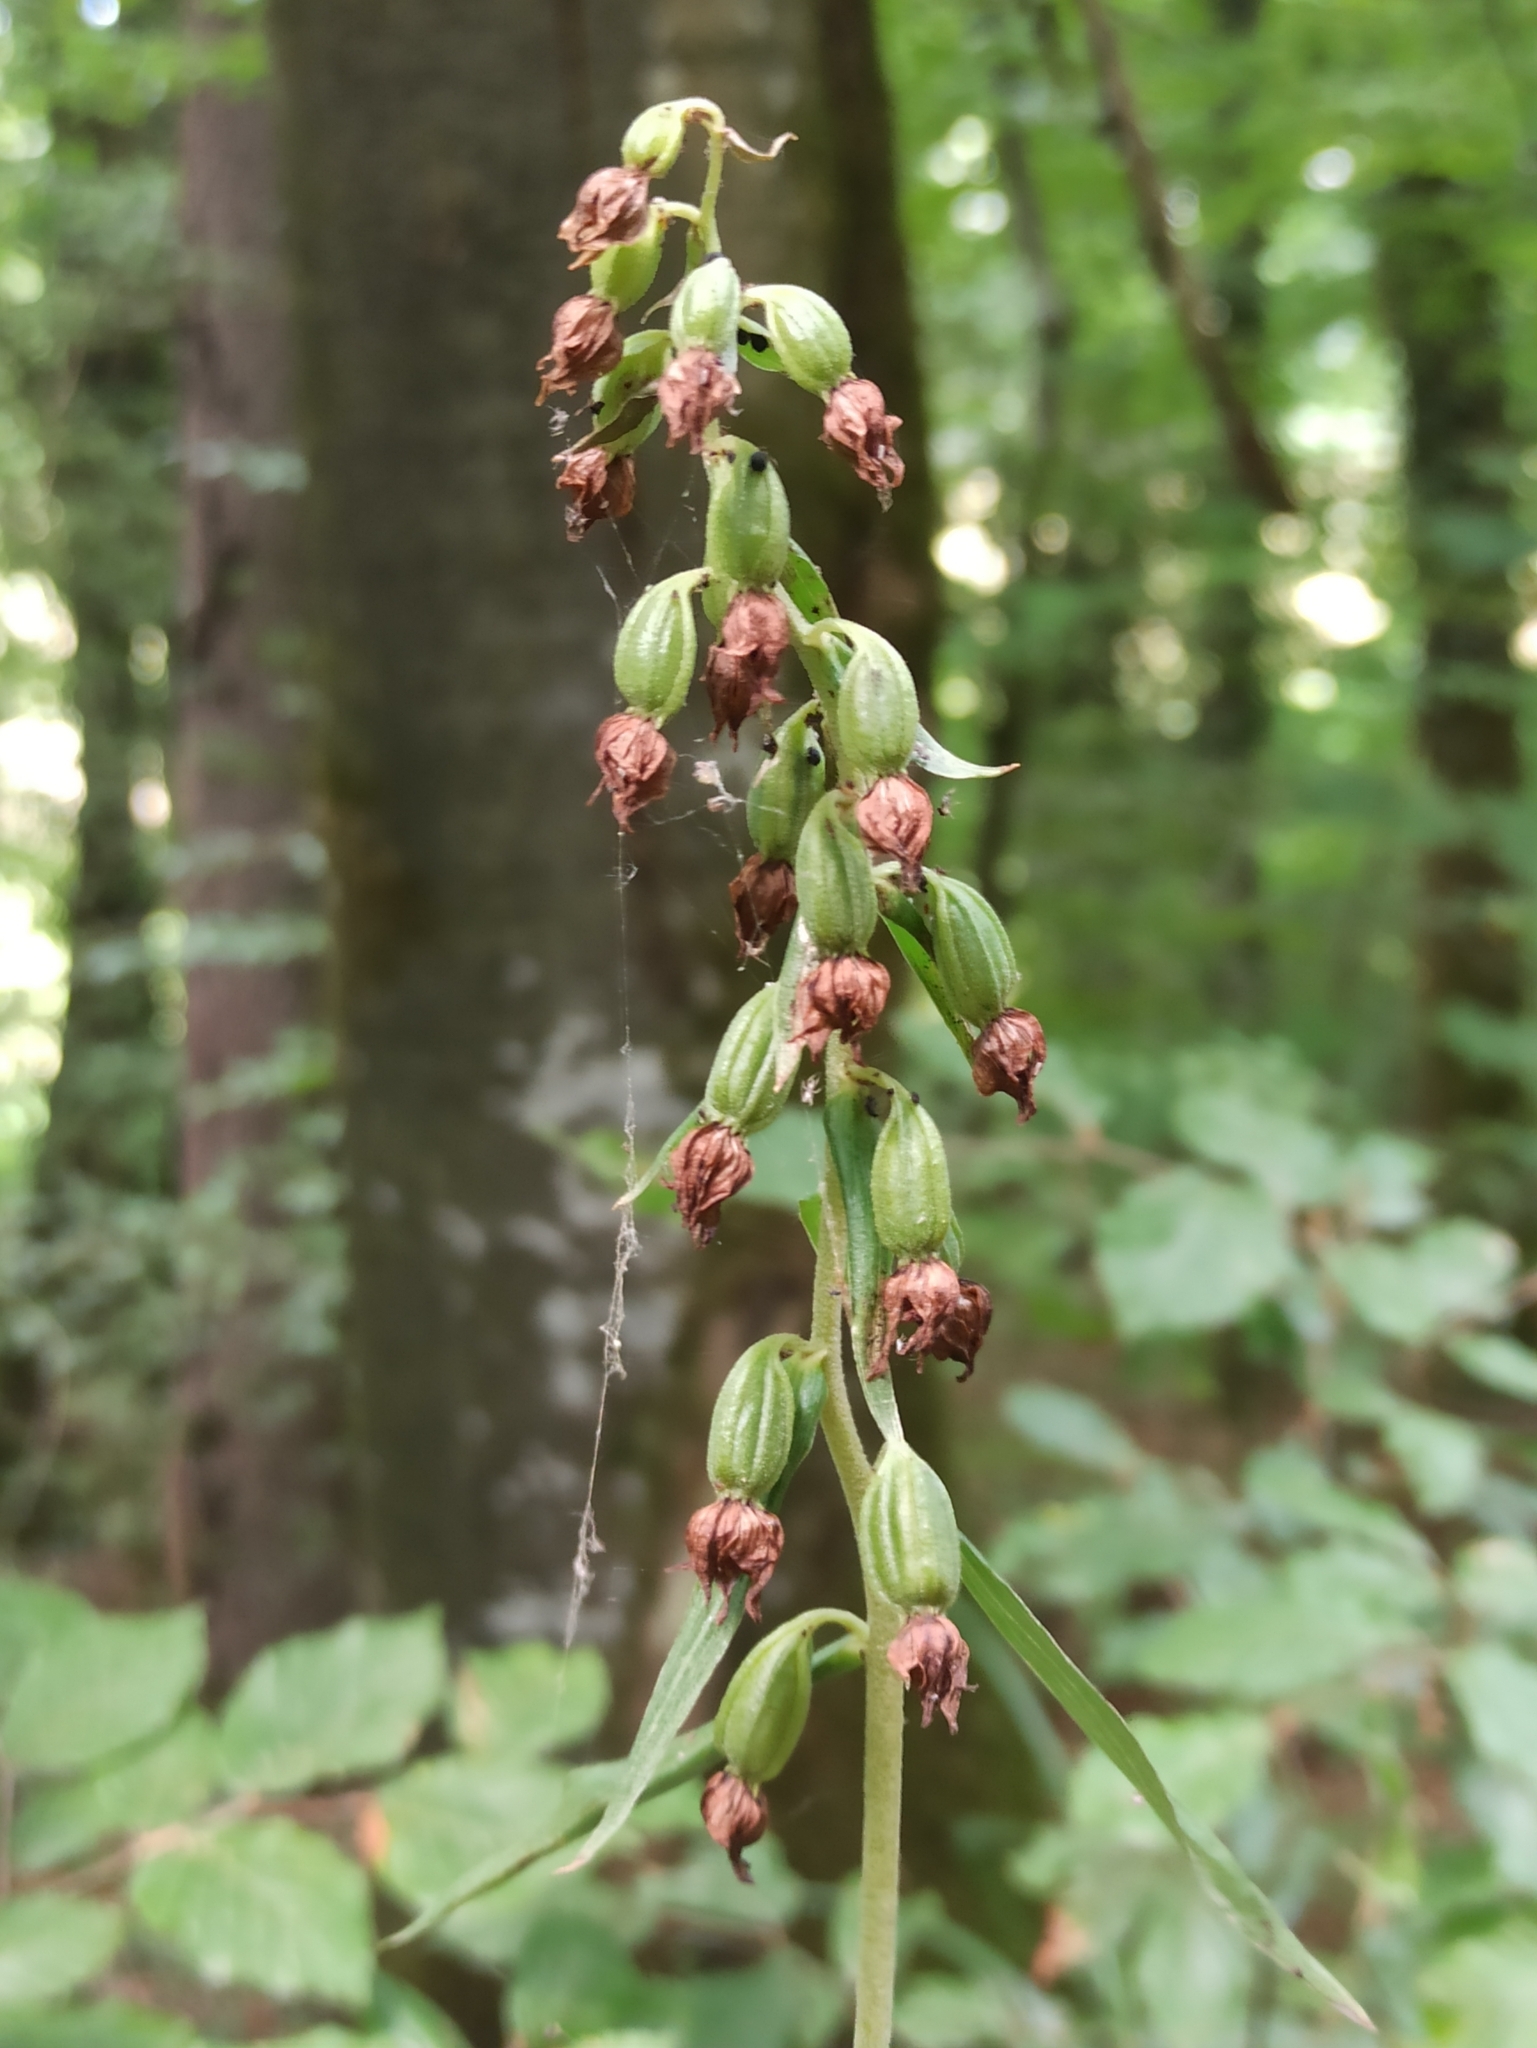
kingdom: Plantae
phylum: Tracheophyta
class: Liliopsida
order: Asparagales
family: Orchidaceae
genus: Epipactis
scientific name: Epipactis helleborine
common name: Broad-leaved helleborine
